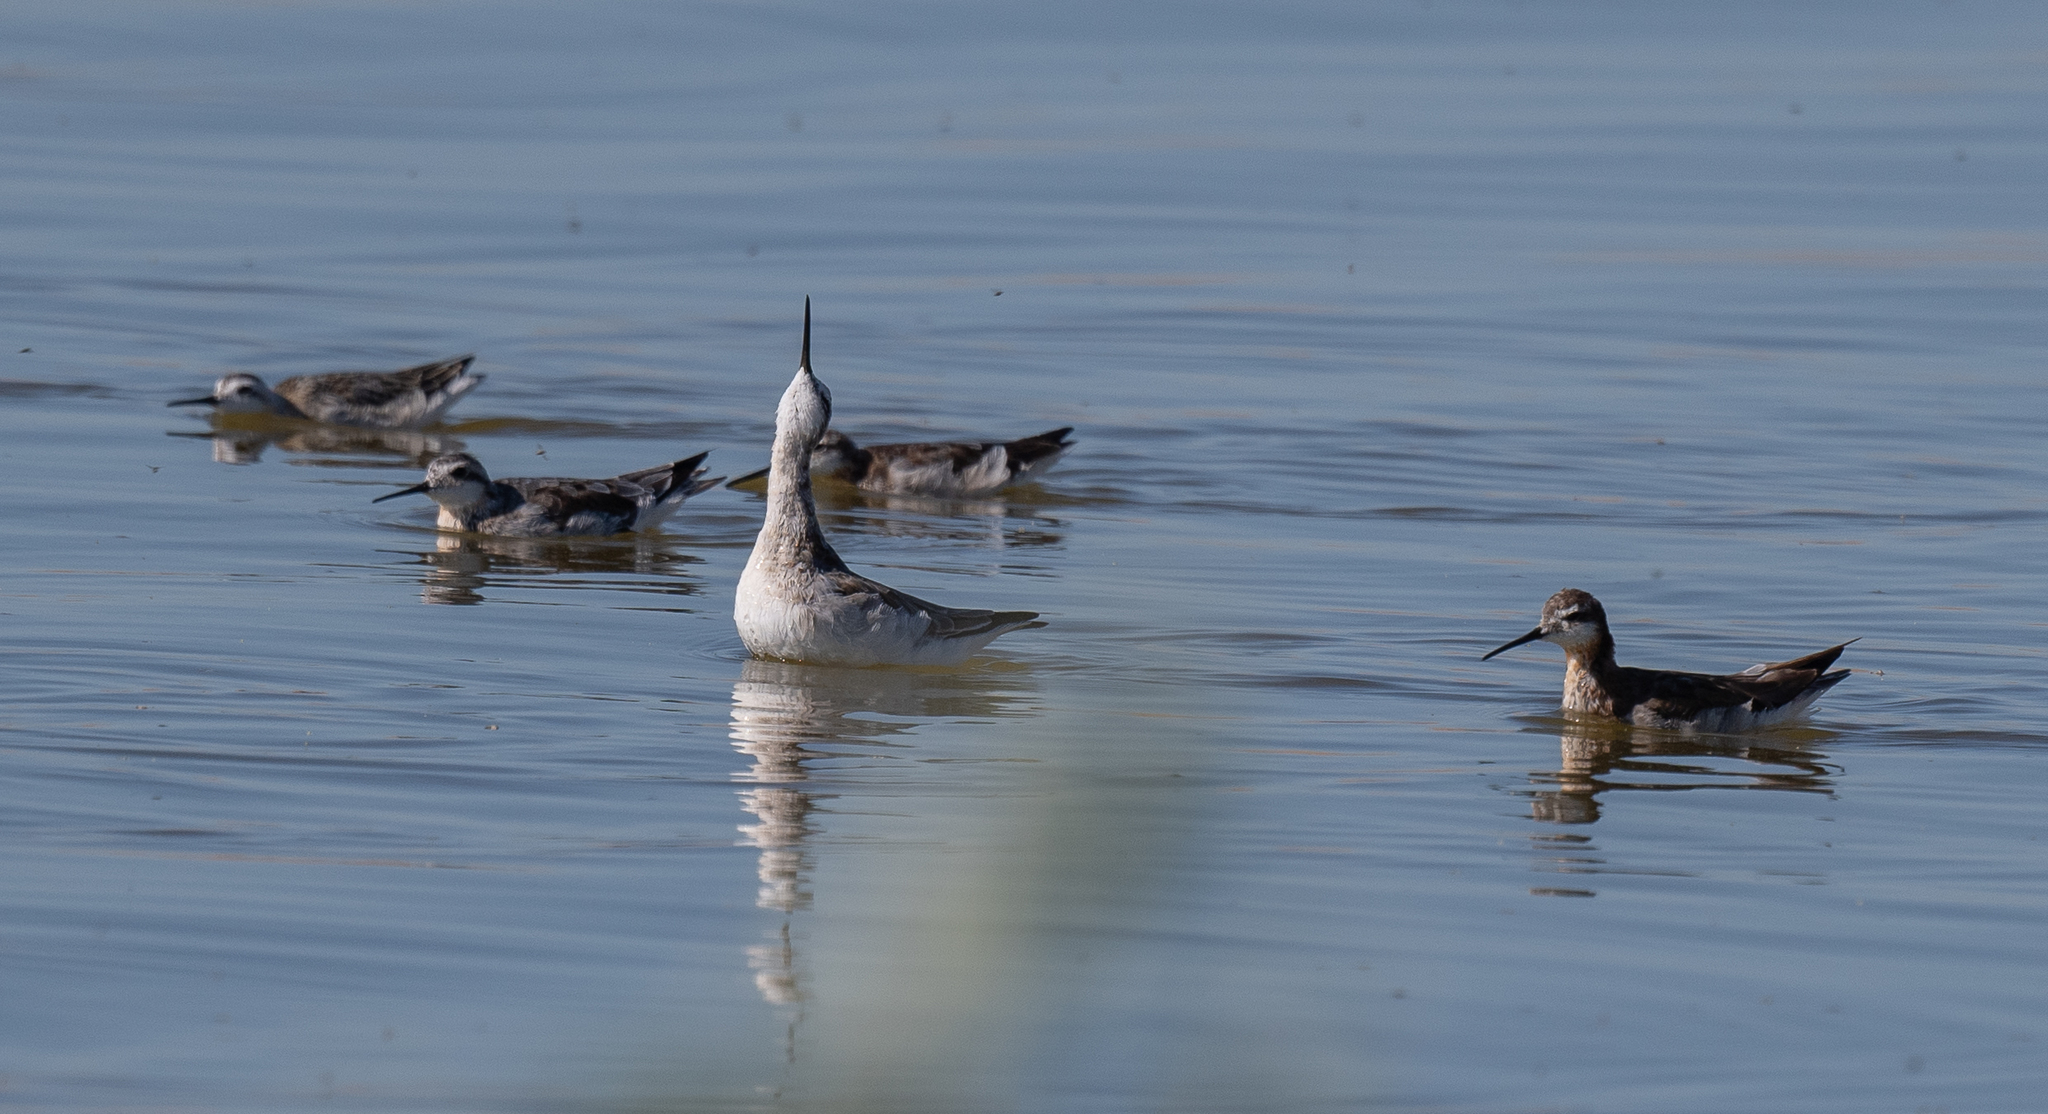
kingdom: Animalia
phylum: Chordata
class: Aves
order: Charadriiformes
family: Scolopacidae
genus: Phalaropus
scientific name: Phalaropus tricolor
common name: Wilson's phalarope
